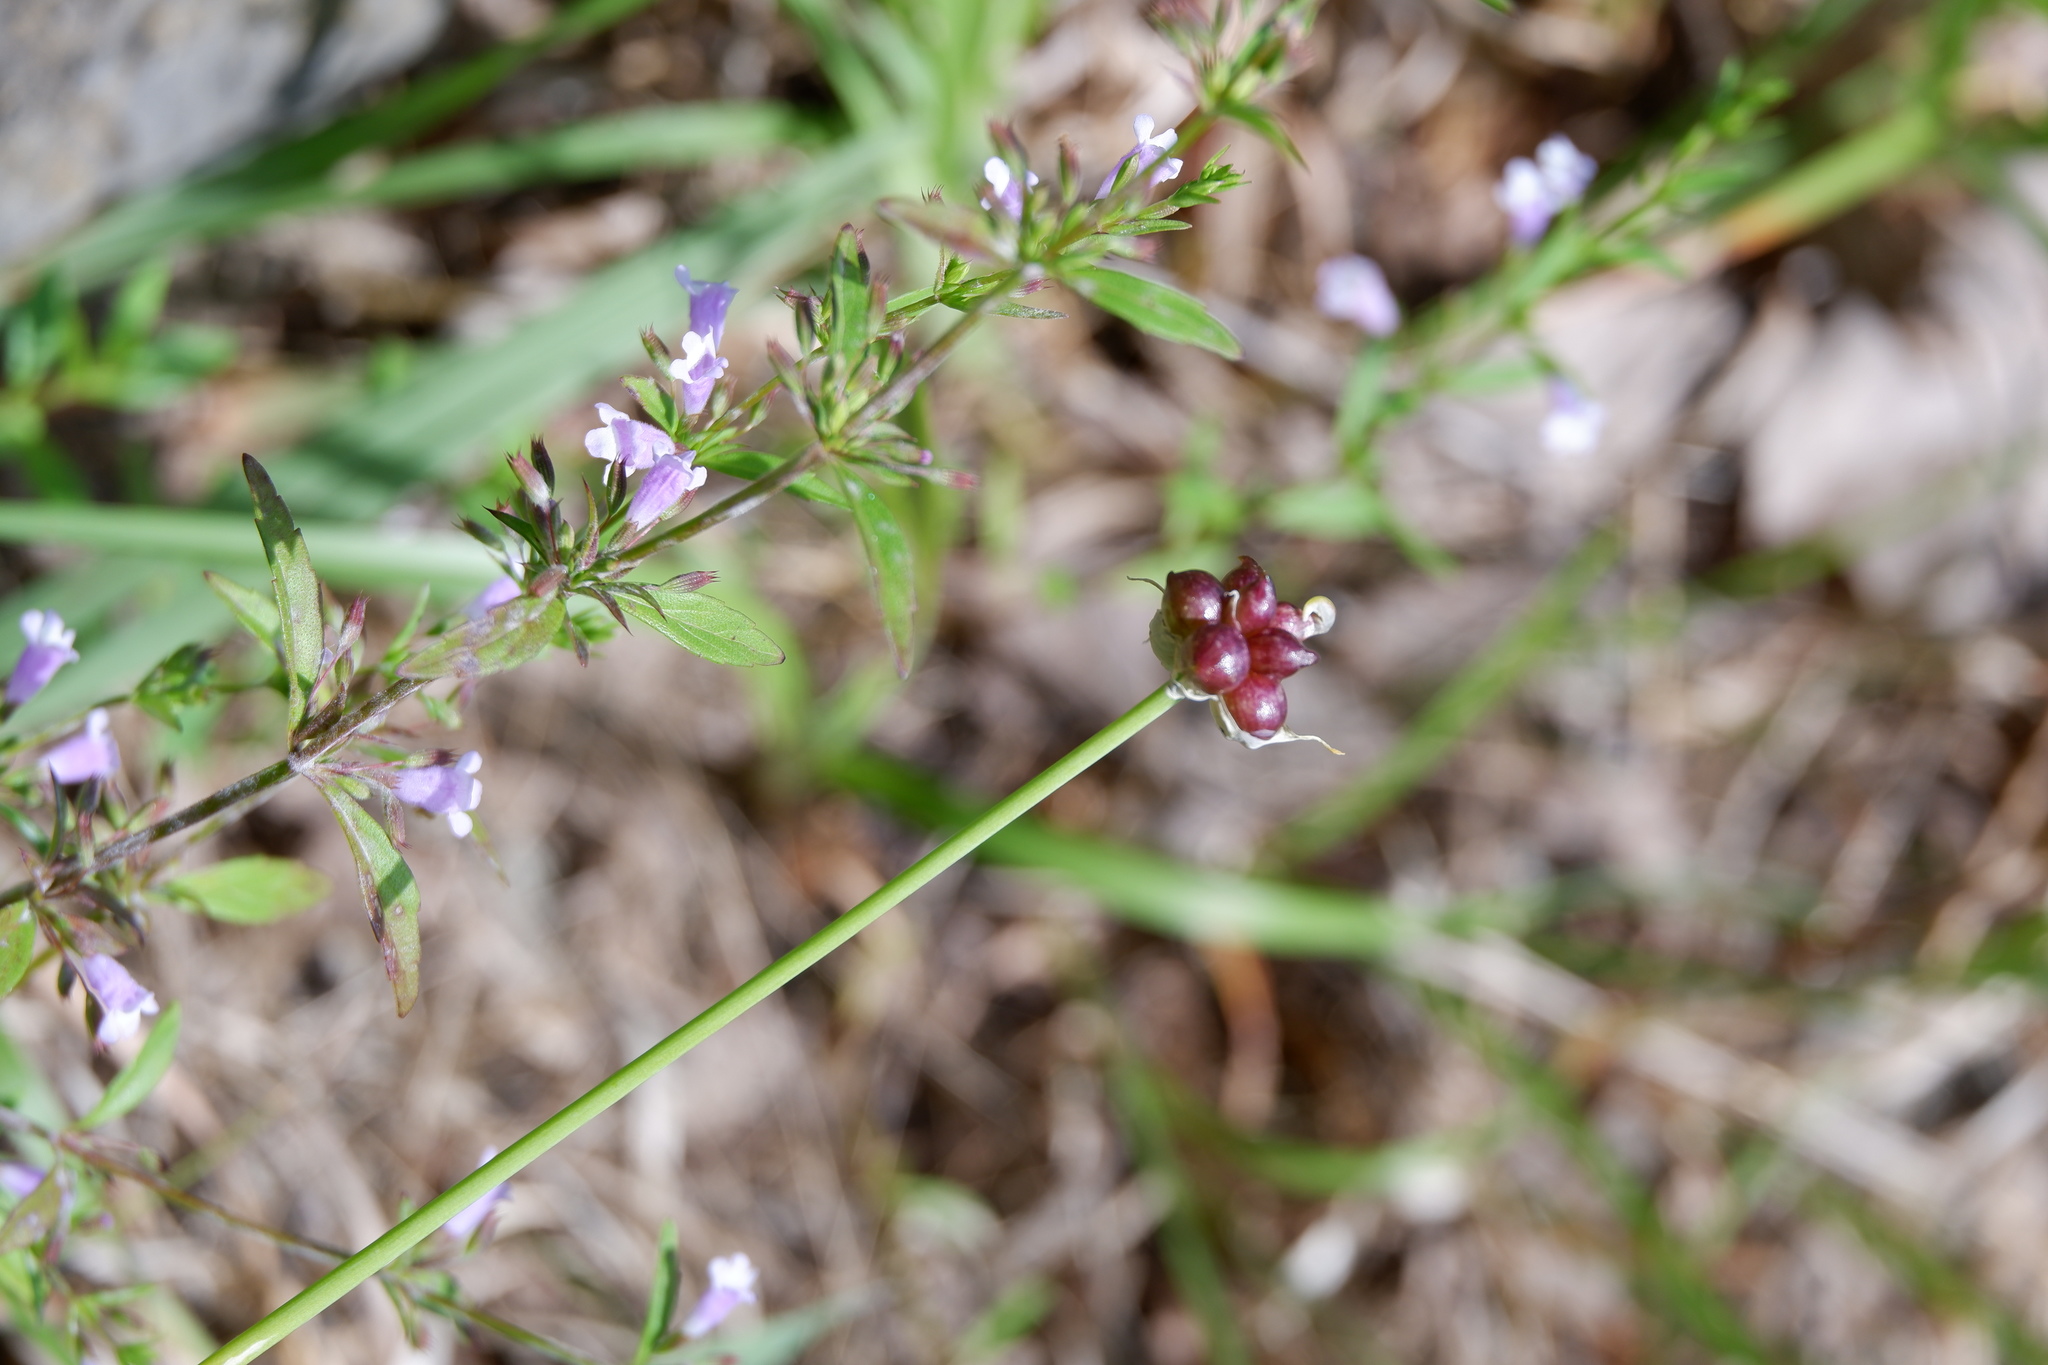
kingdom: Plantae
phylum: Tracheophyta
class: Liliopsida
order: Asparagales
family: Amaryllidaceae
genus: Allium
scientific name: Allium vineale
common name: Crow garlic
